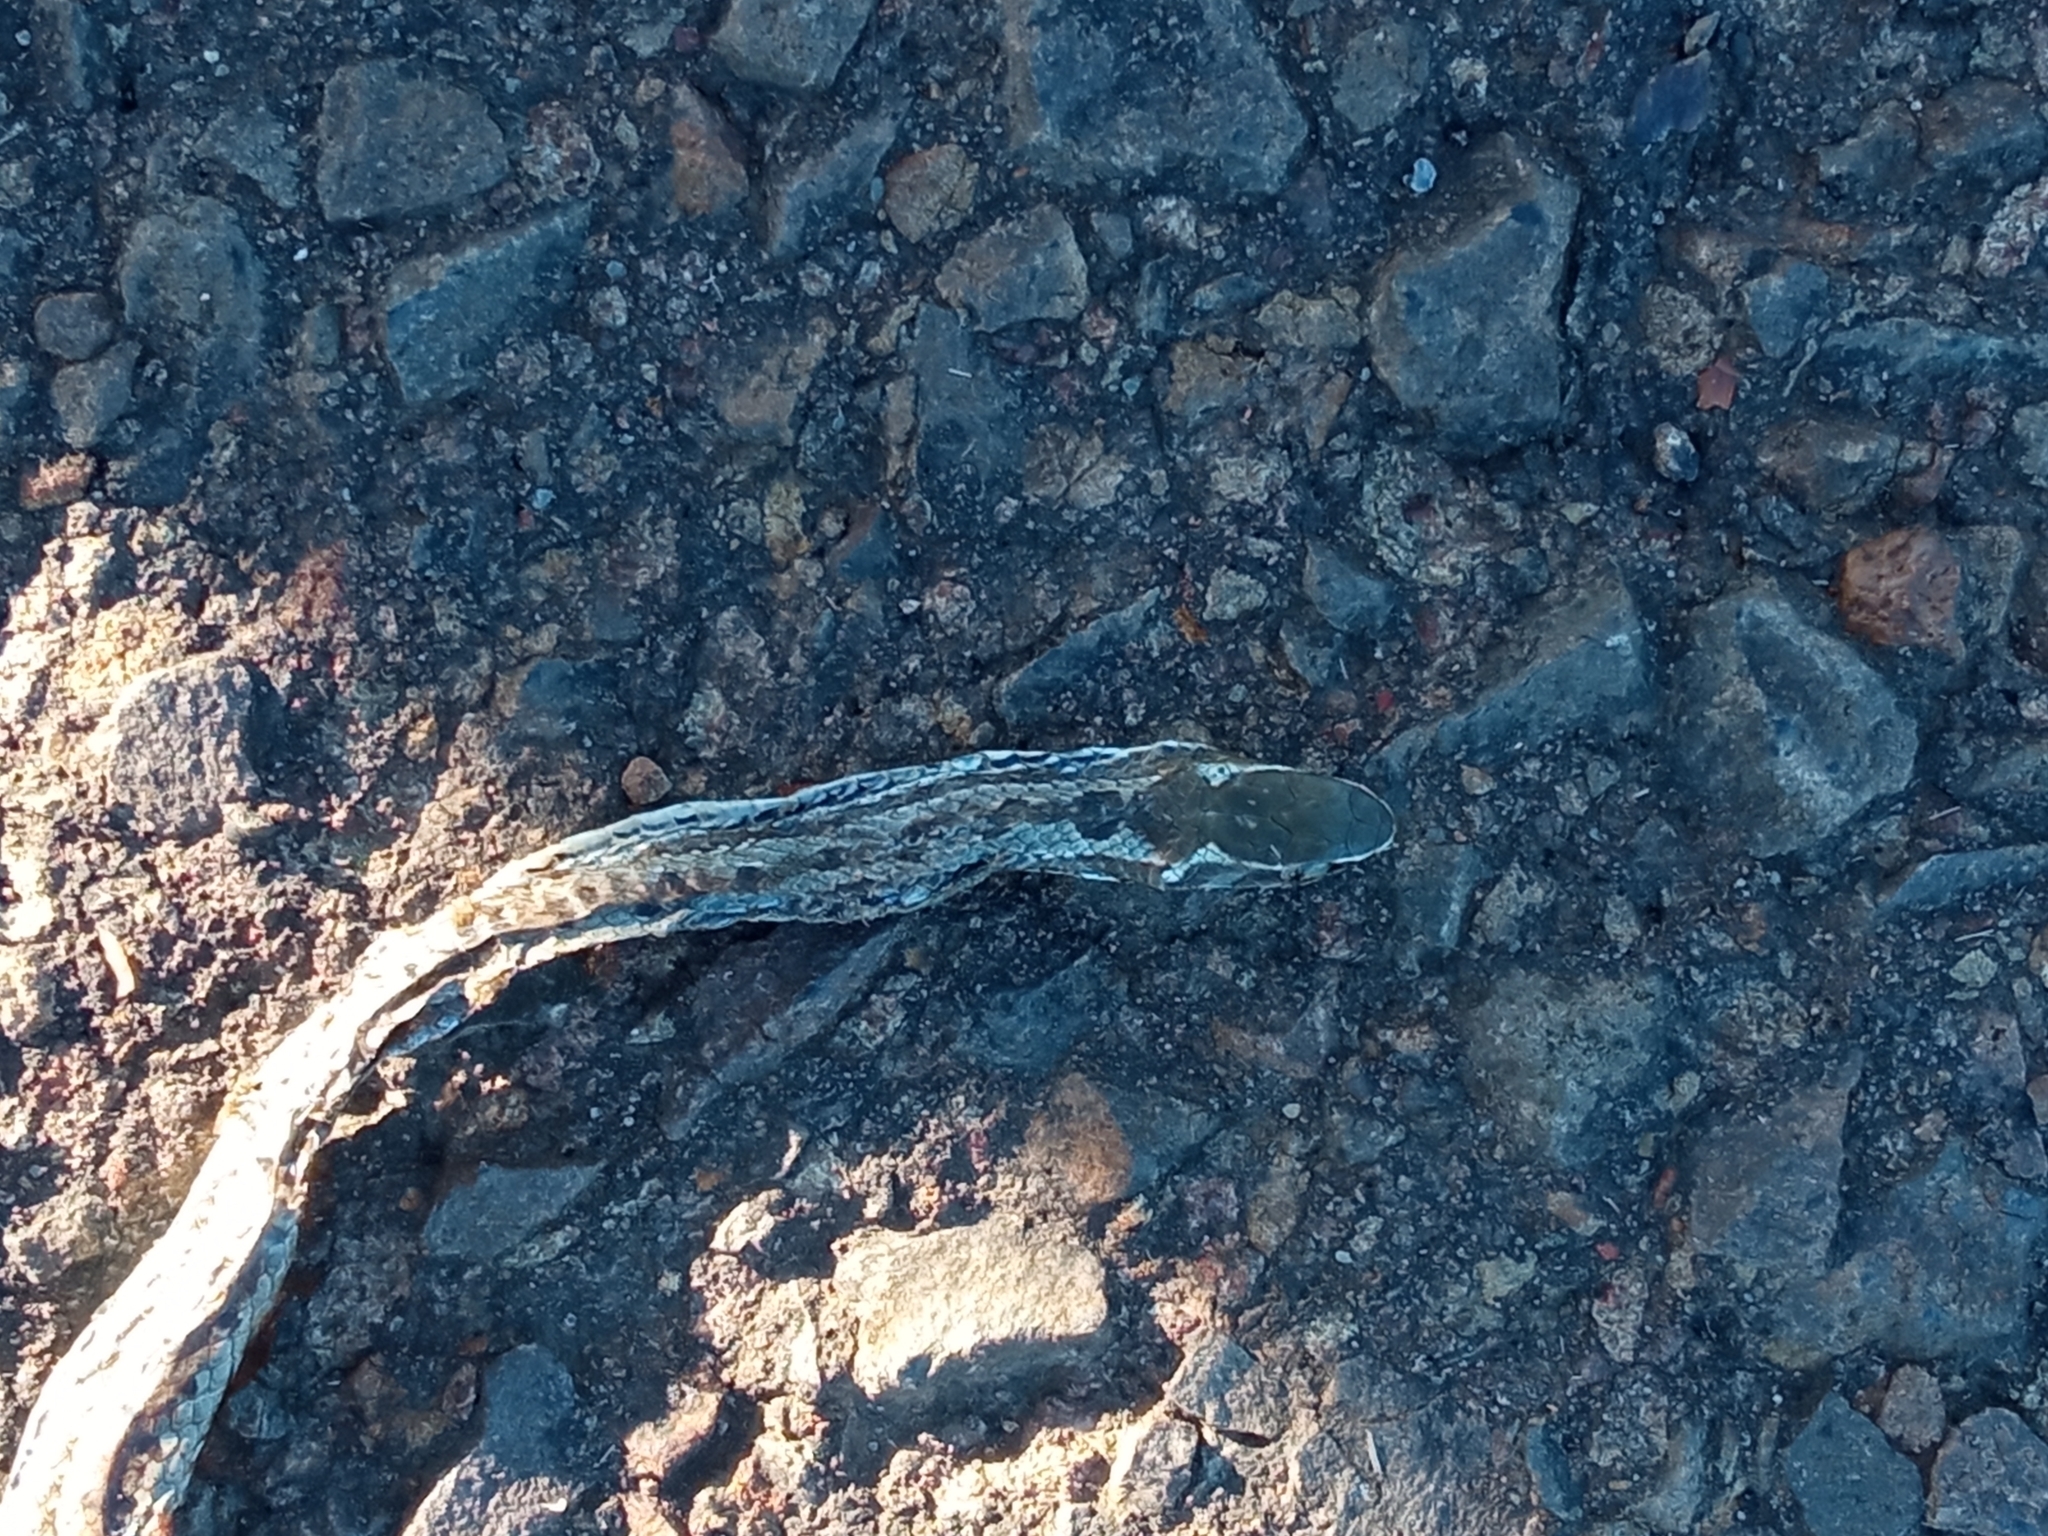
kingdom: Animalia
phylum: Chordata
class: Squamata
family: Colubridae
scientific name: Colubridae
